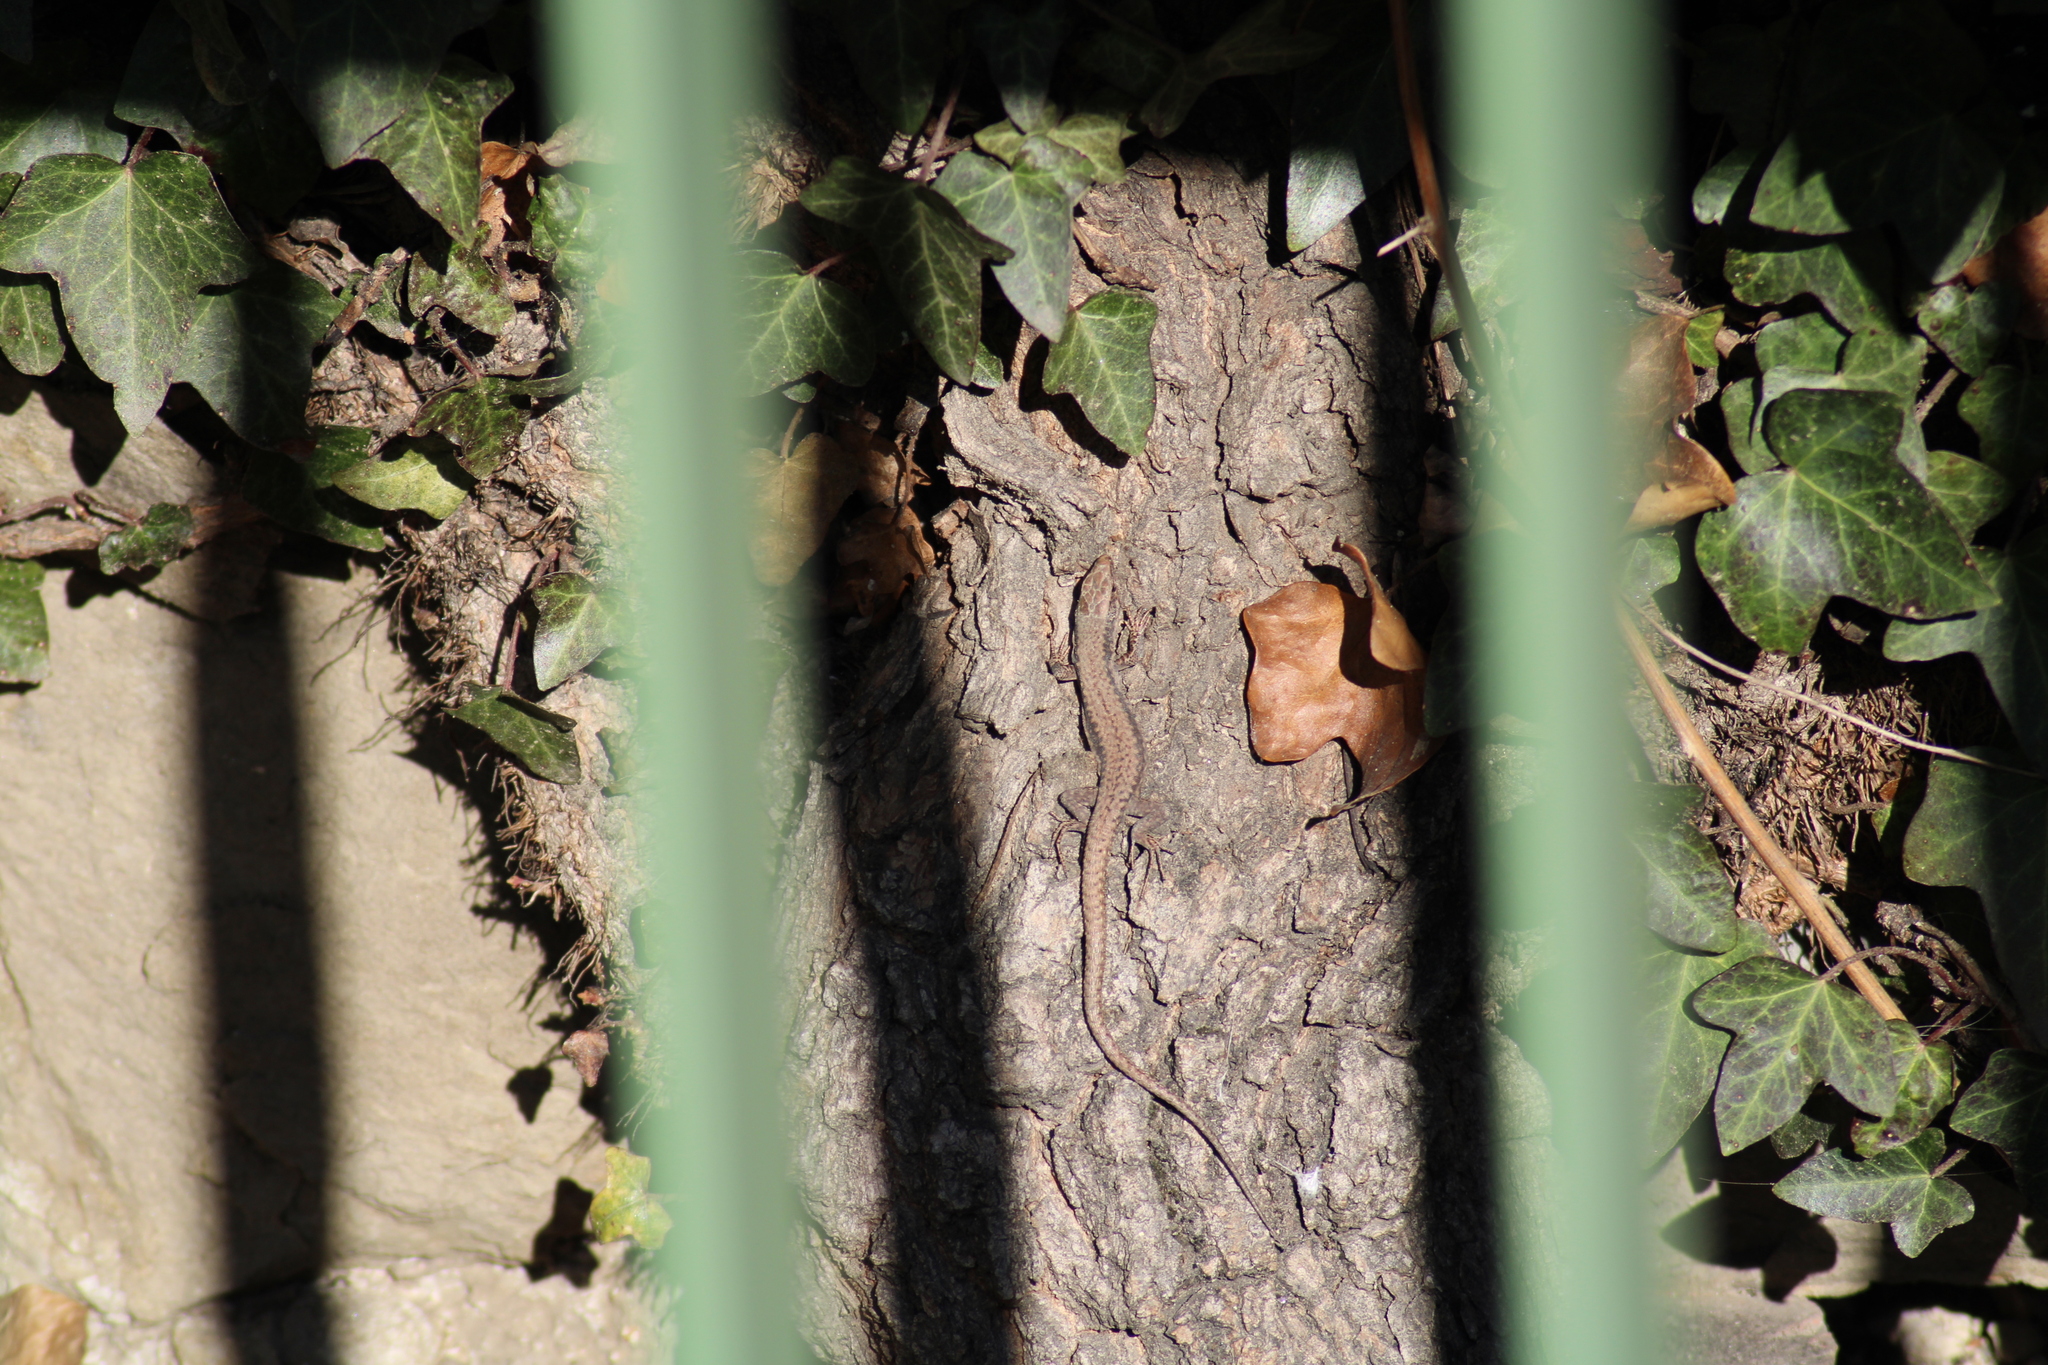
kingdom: Animalia
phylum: Chordata
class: Squamata
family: Lacertidae
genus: Podarcis
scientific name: Podarcis muralis
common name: Common wall lizard
